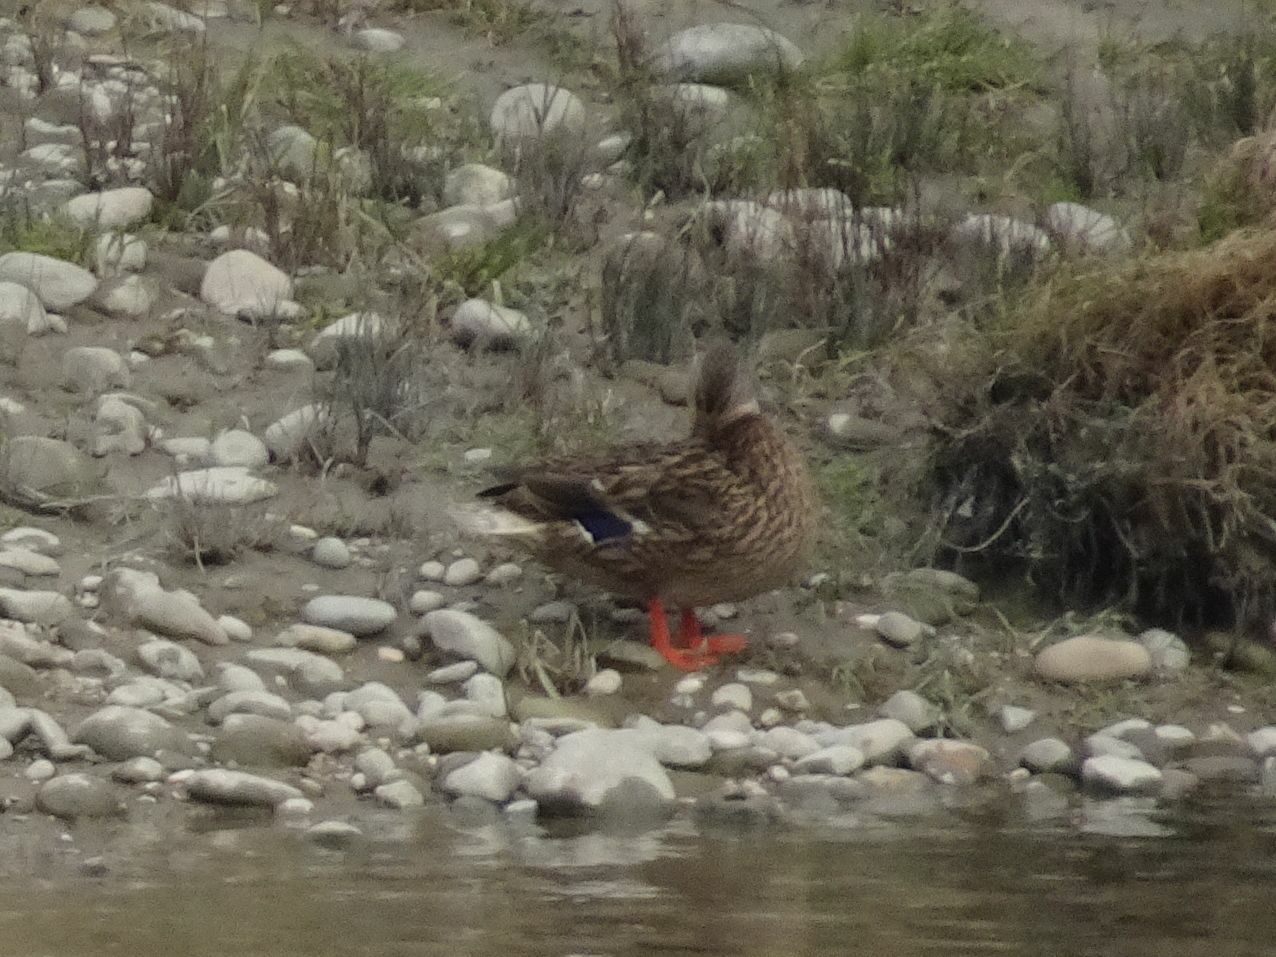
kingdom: Animalia
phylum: Chordata
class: Aves
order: Anseriformes
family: Anatidae
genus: Anas
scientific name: Anas platyrhynchos
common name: Mallard
